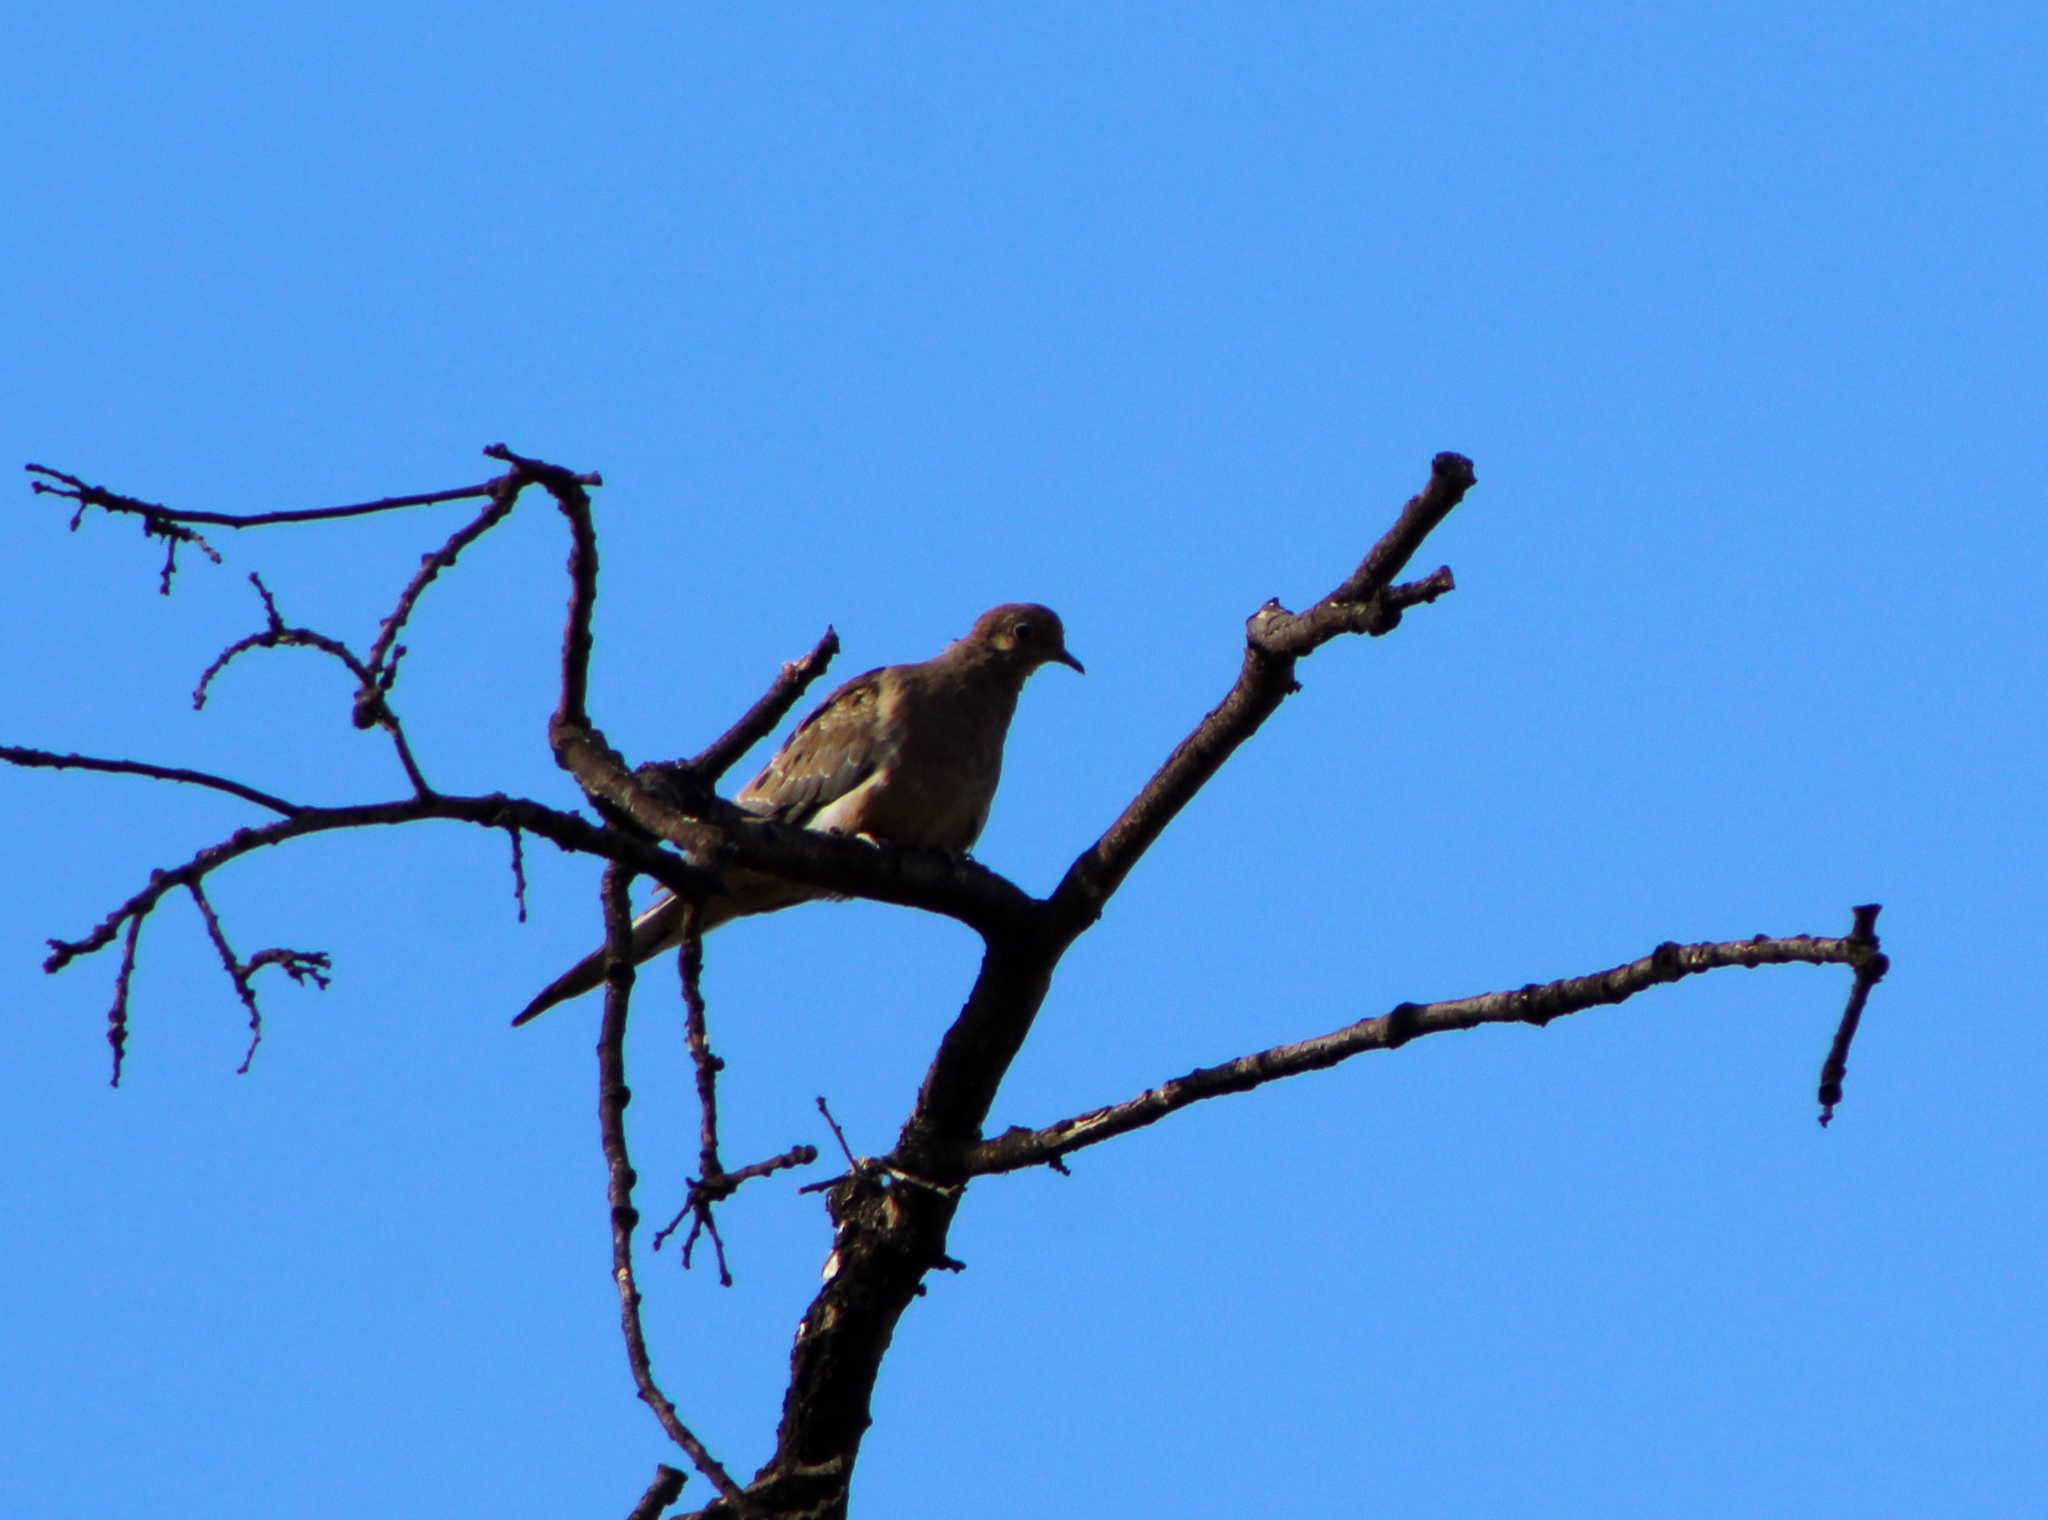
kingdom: Animalia
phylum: Chordata
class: Aves
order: Columbiformes
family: Columbidae
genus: Zenaida
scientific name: Zenaida macroura
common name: Mourning dove
